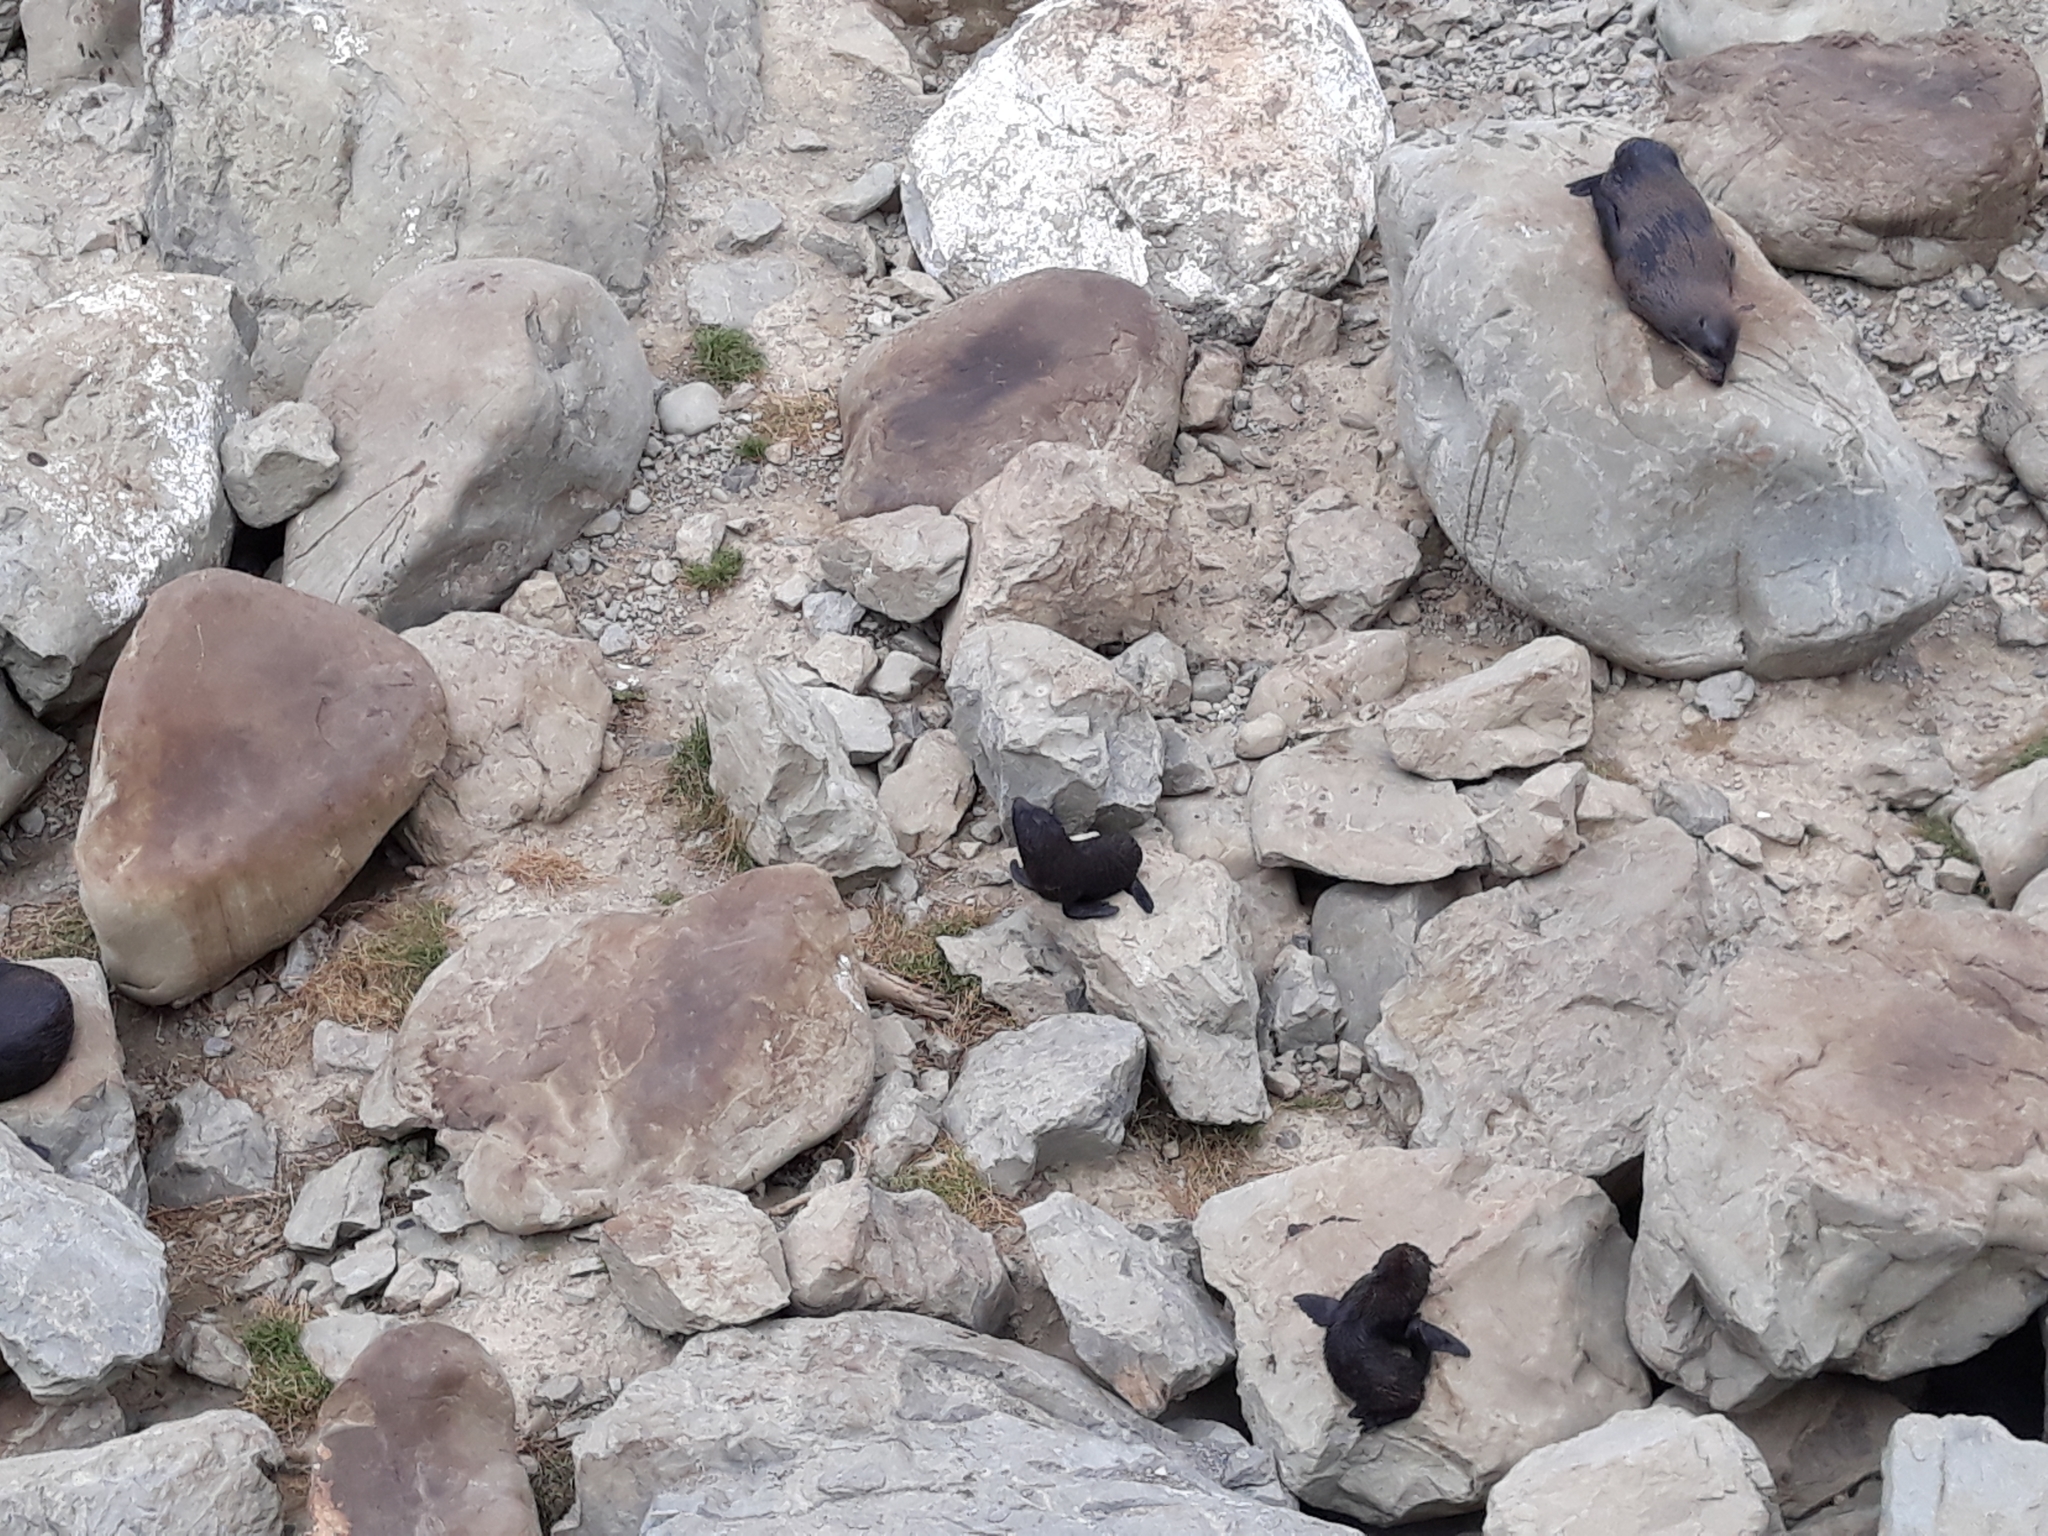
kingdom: Animalia
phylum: Chordata
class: Mammalia
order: Carnivora
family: Otariidae
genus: Arctocephalus
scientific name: Arctocephalus forsteri
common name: New zealand fur seal
